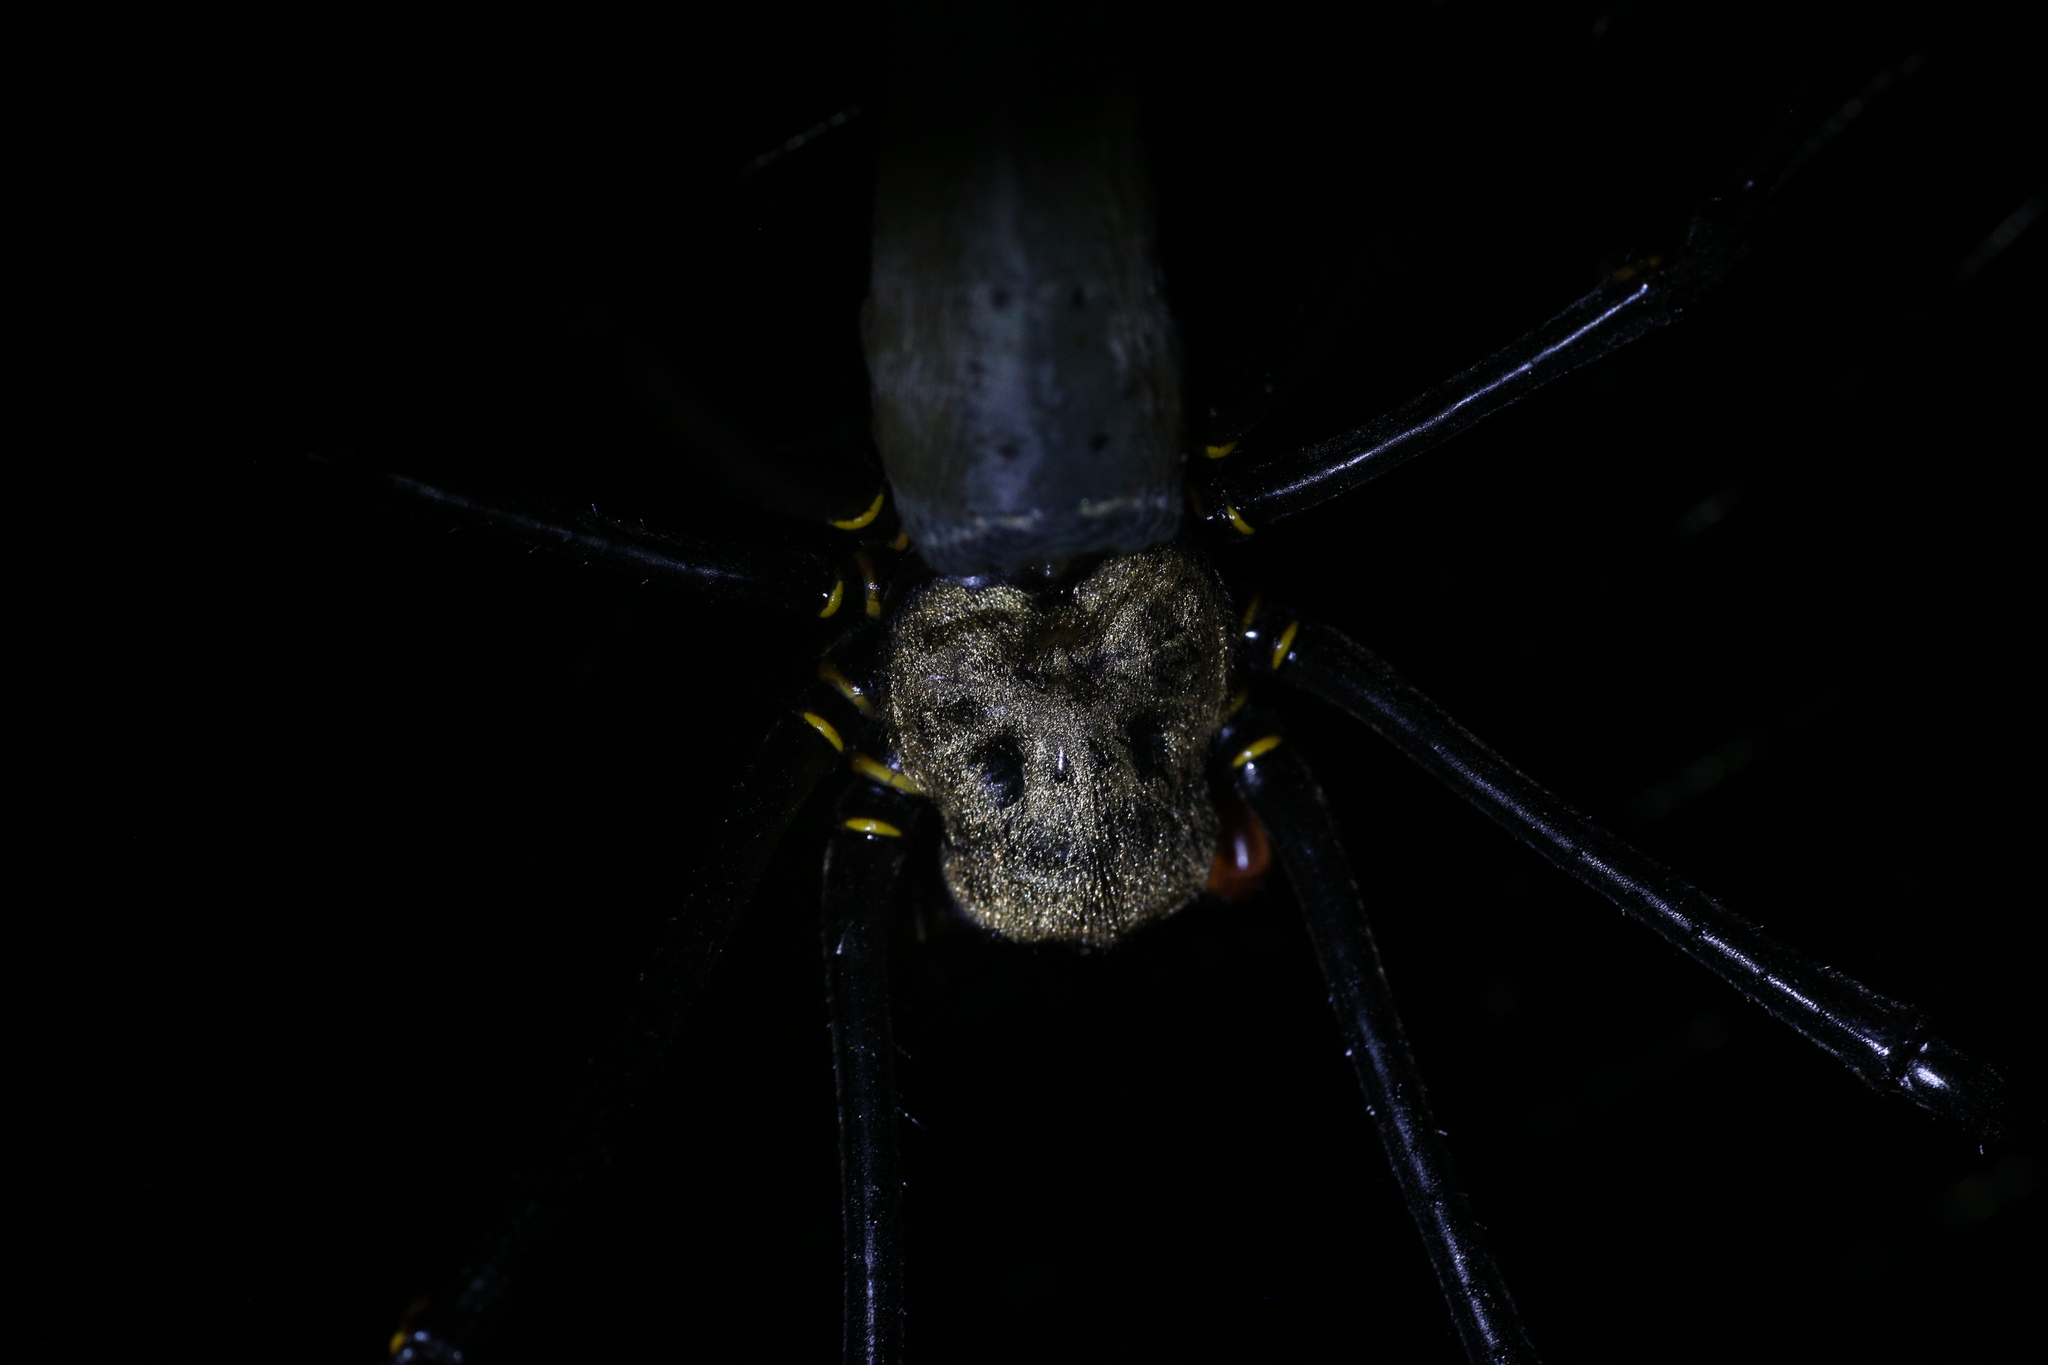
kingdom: Animalia
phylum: Arthropoda
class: Arachnida
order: Araneae
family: Araneidae
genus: Nephila
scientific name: Nephila pilipes
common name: Giant golden orb weaver
